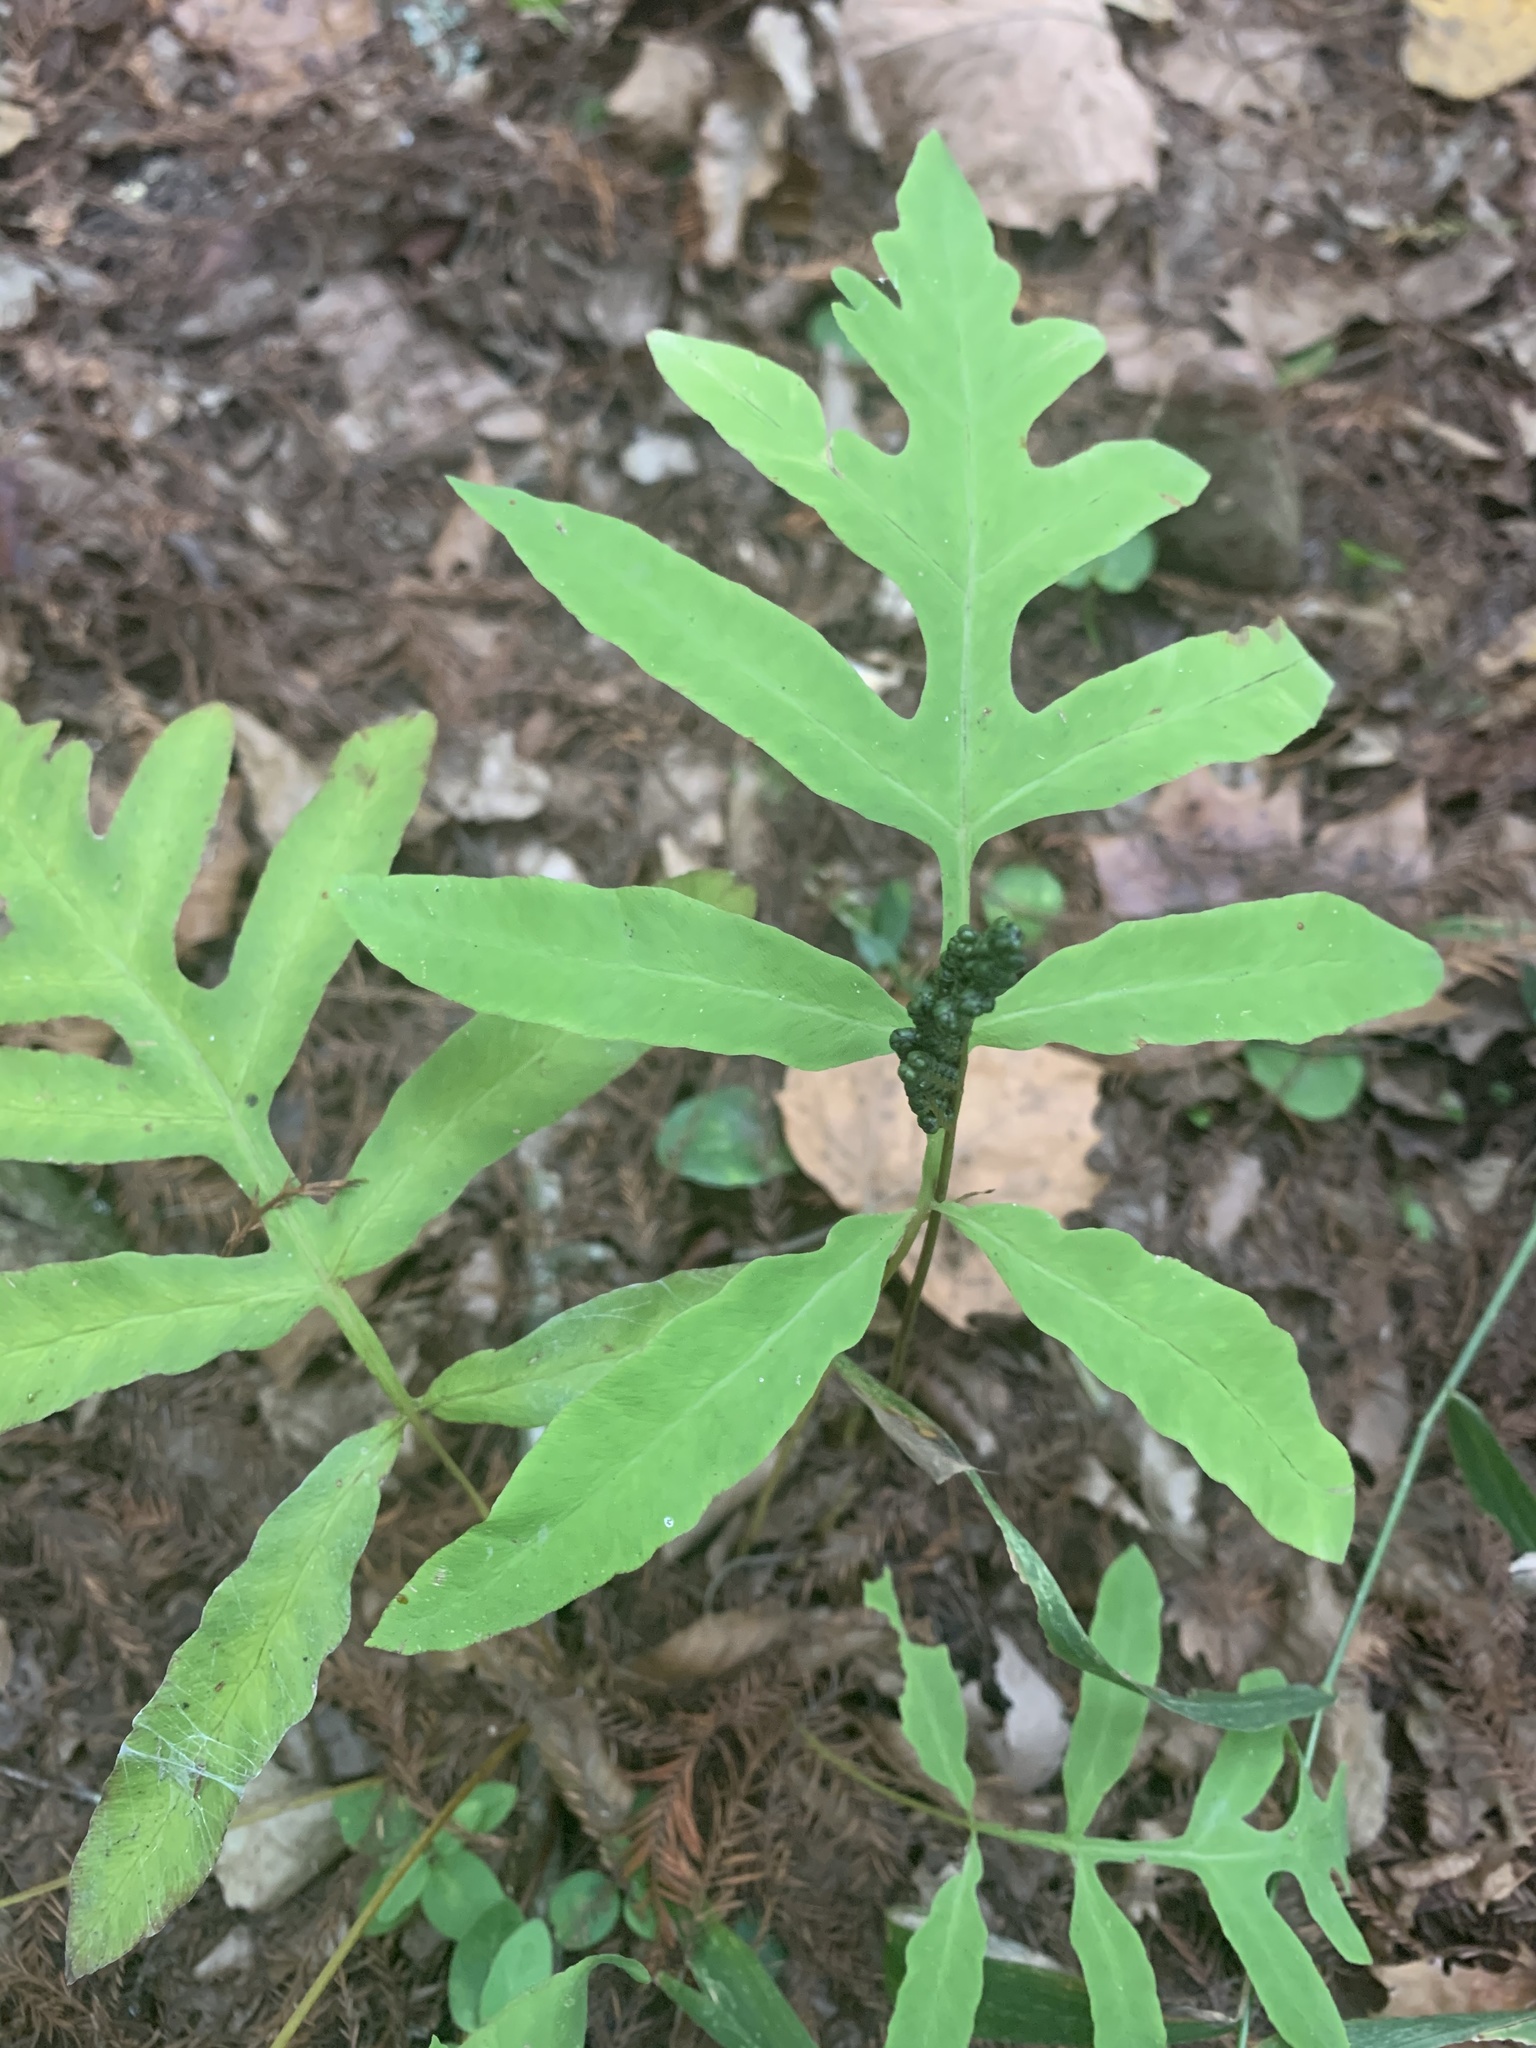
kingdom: Plantae
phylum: Tracheophyta
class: Polypodiopsida
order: Polypodiales
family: Onocleaceae
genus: Onoclea
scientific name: Onoclea sensibilis
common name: Sensitive fern
